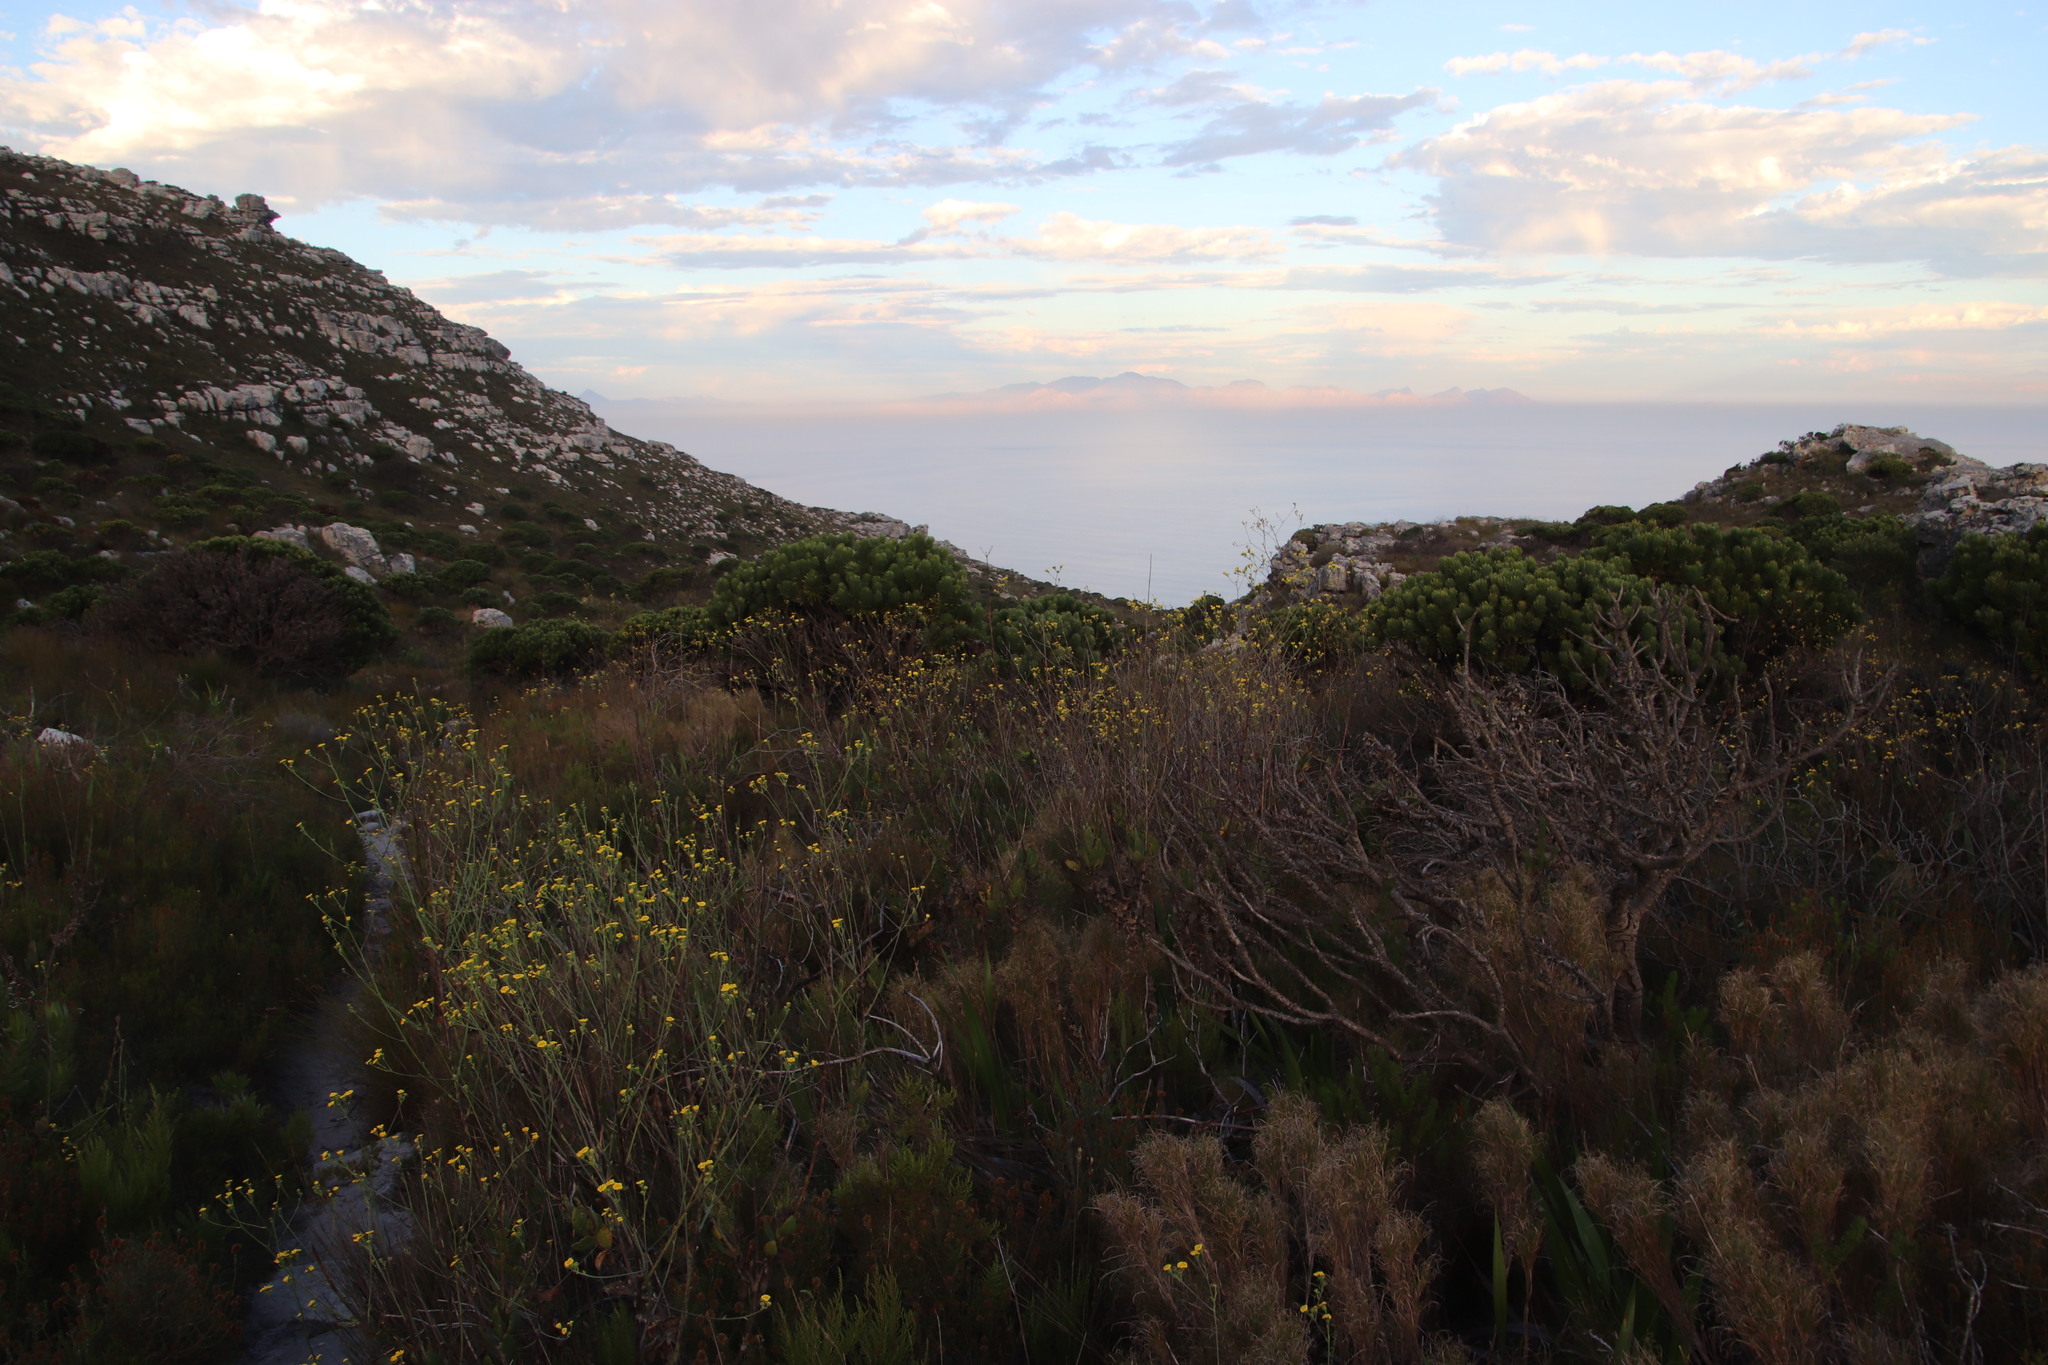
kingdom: Plantae
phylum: Tracheophyta
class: Magnoliopsida
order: Asterales
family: Asteraceae
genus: Othonna
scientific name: Othonna quinquedentata
